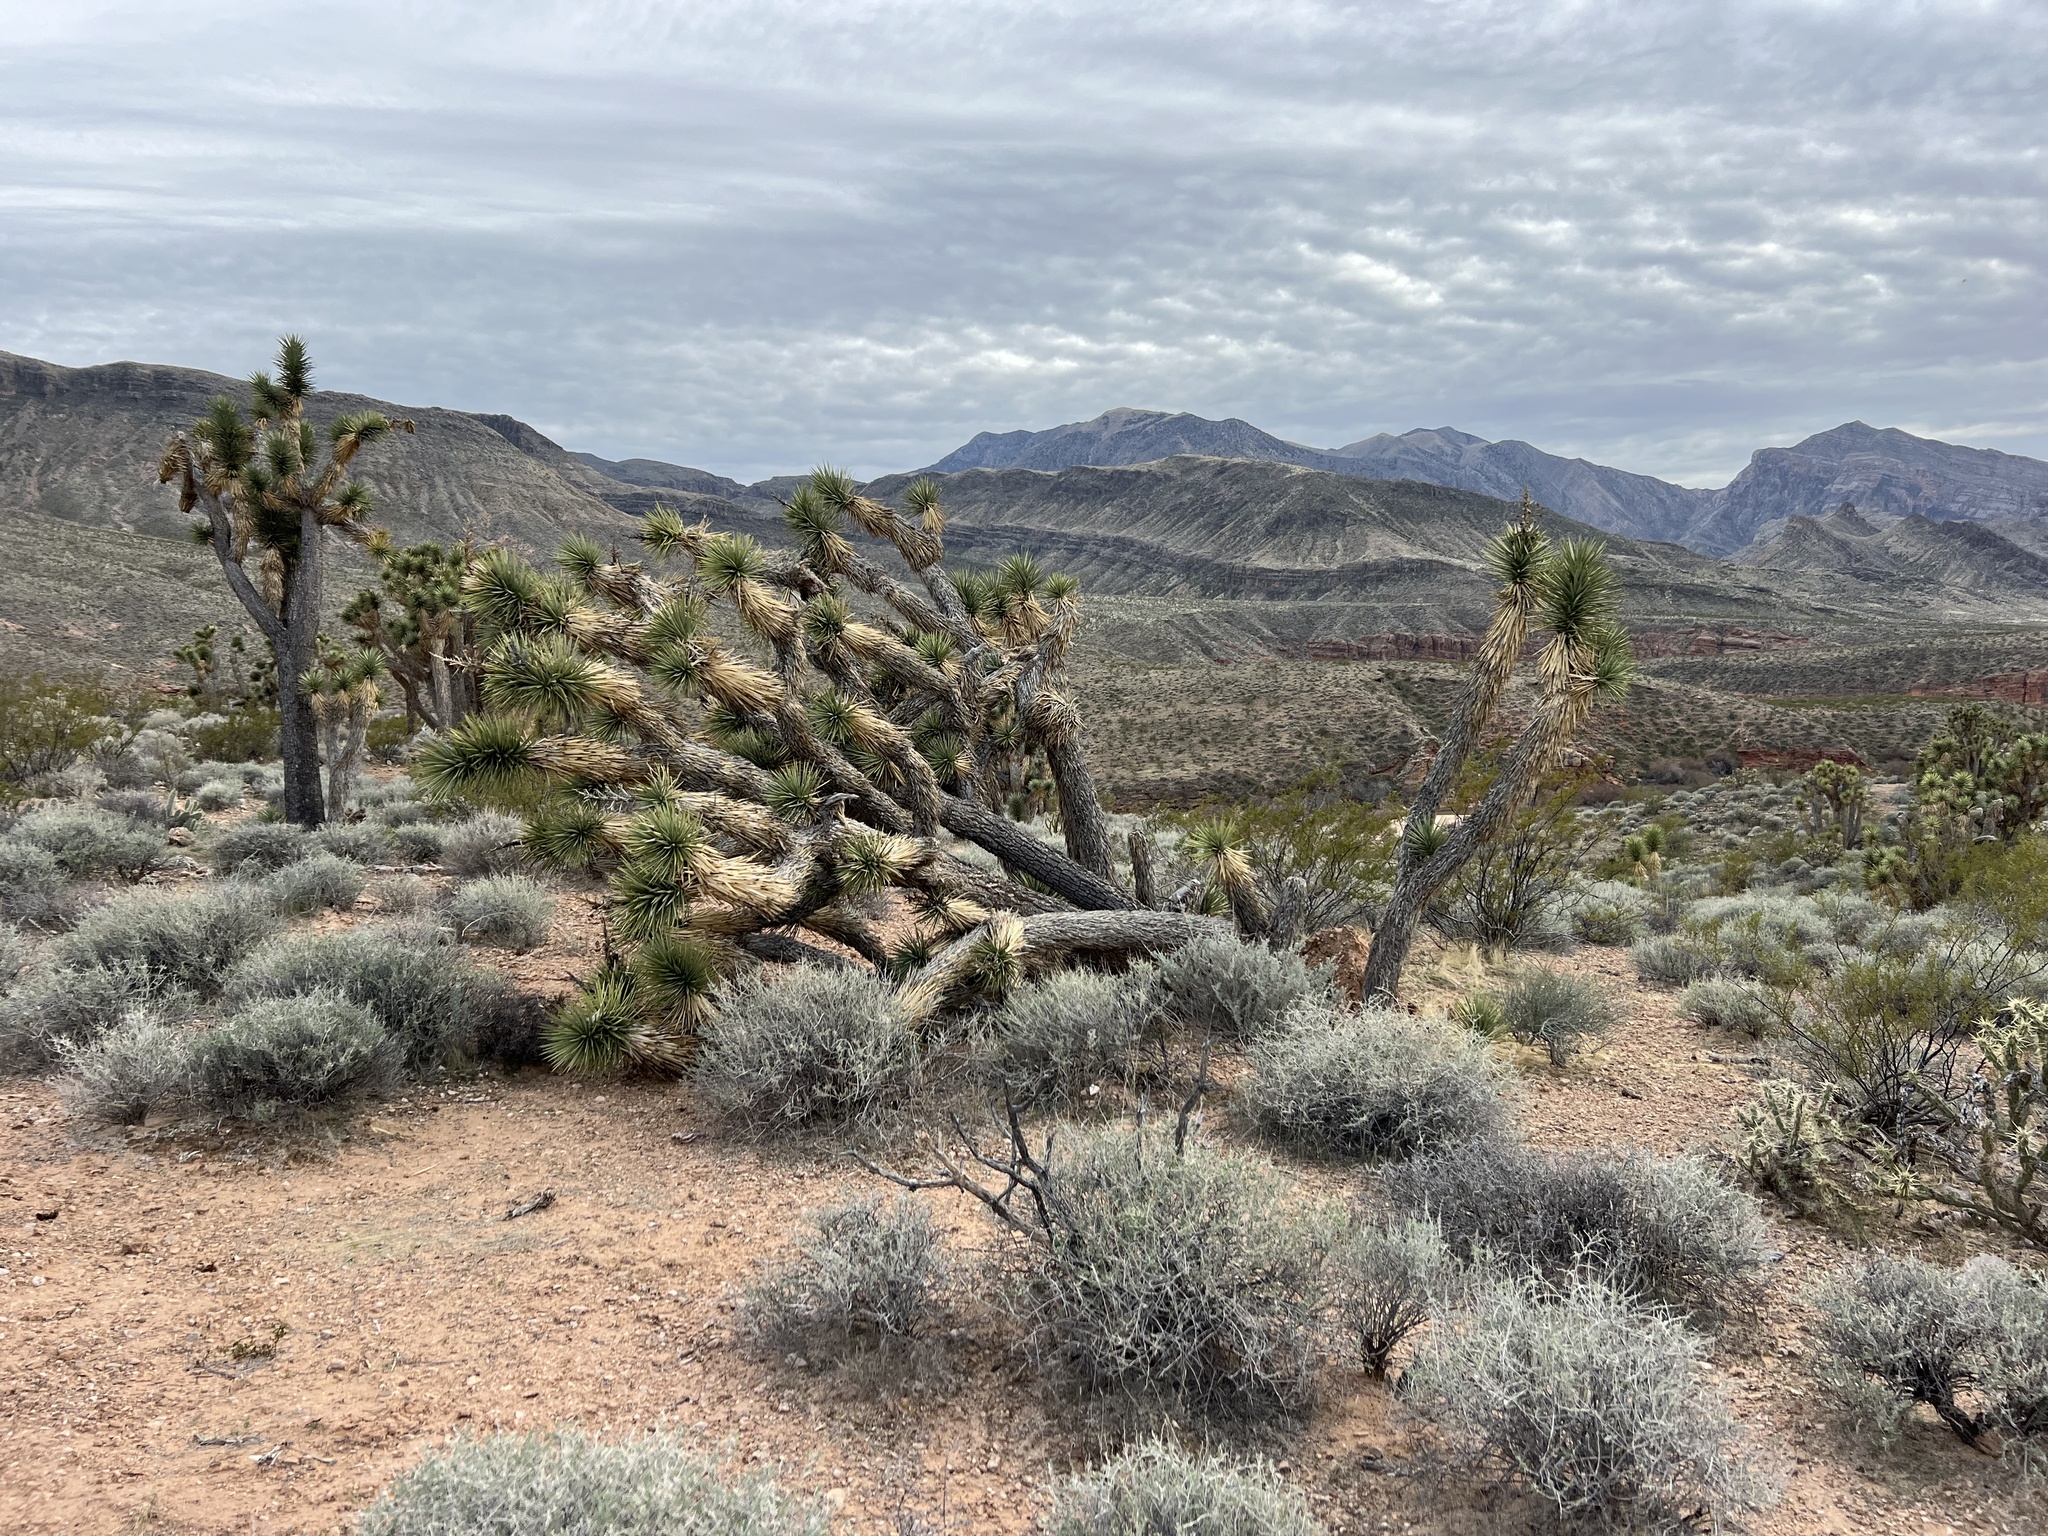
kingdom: Plantae
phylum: Tracheophyta
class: Liliopsida
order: Asparagales
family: Asparagaceae
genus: Yucca
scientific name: Yucca brevifolia
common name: Joshua tree
